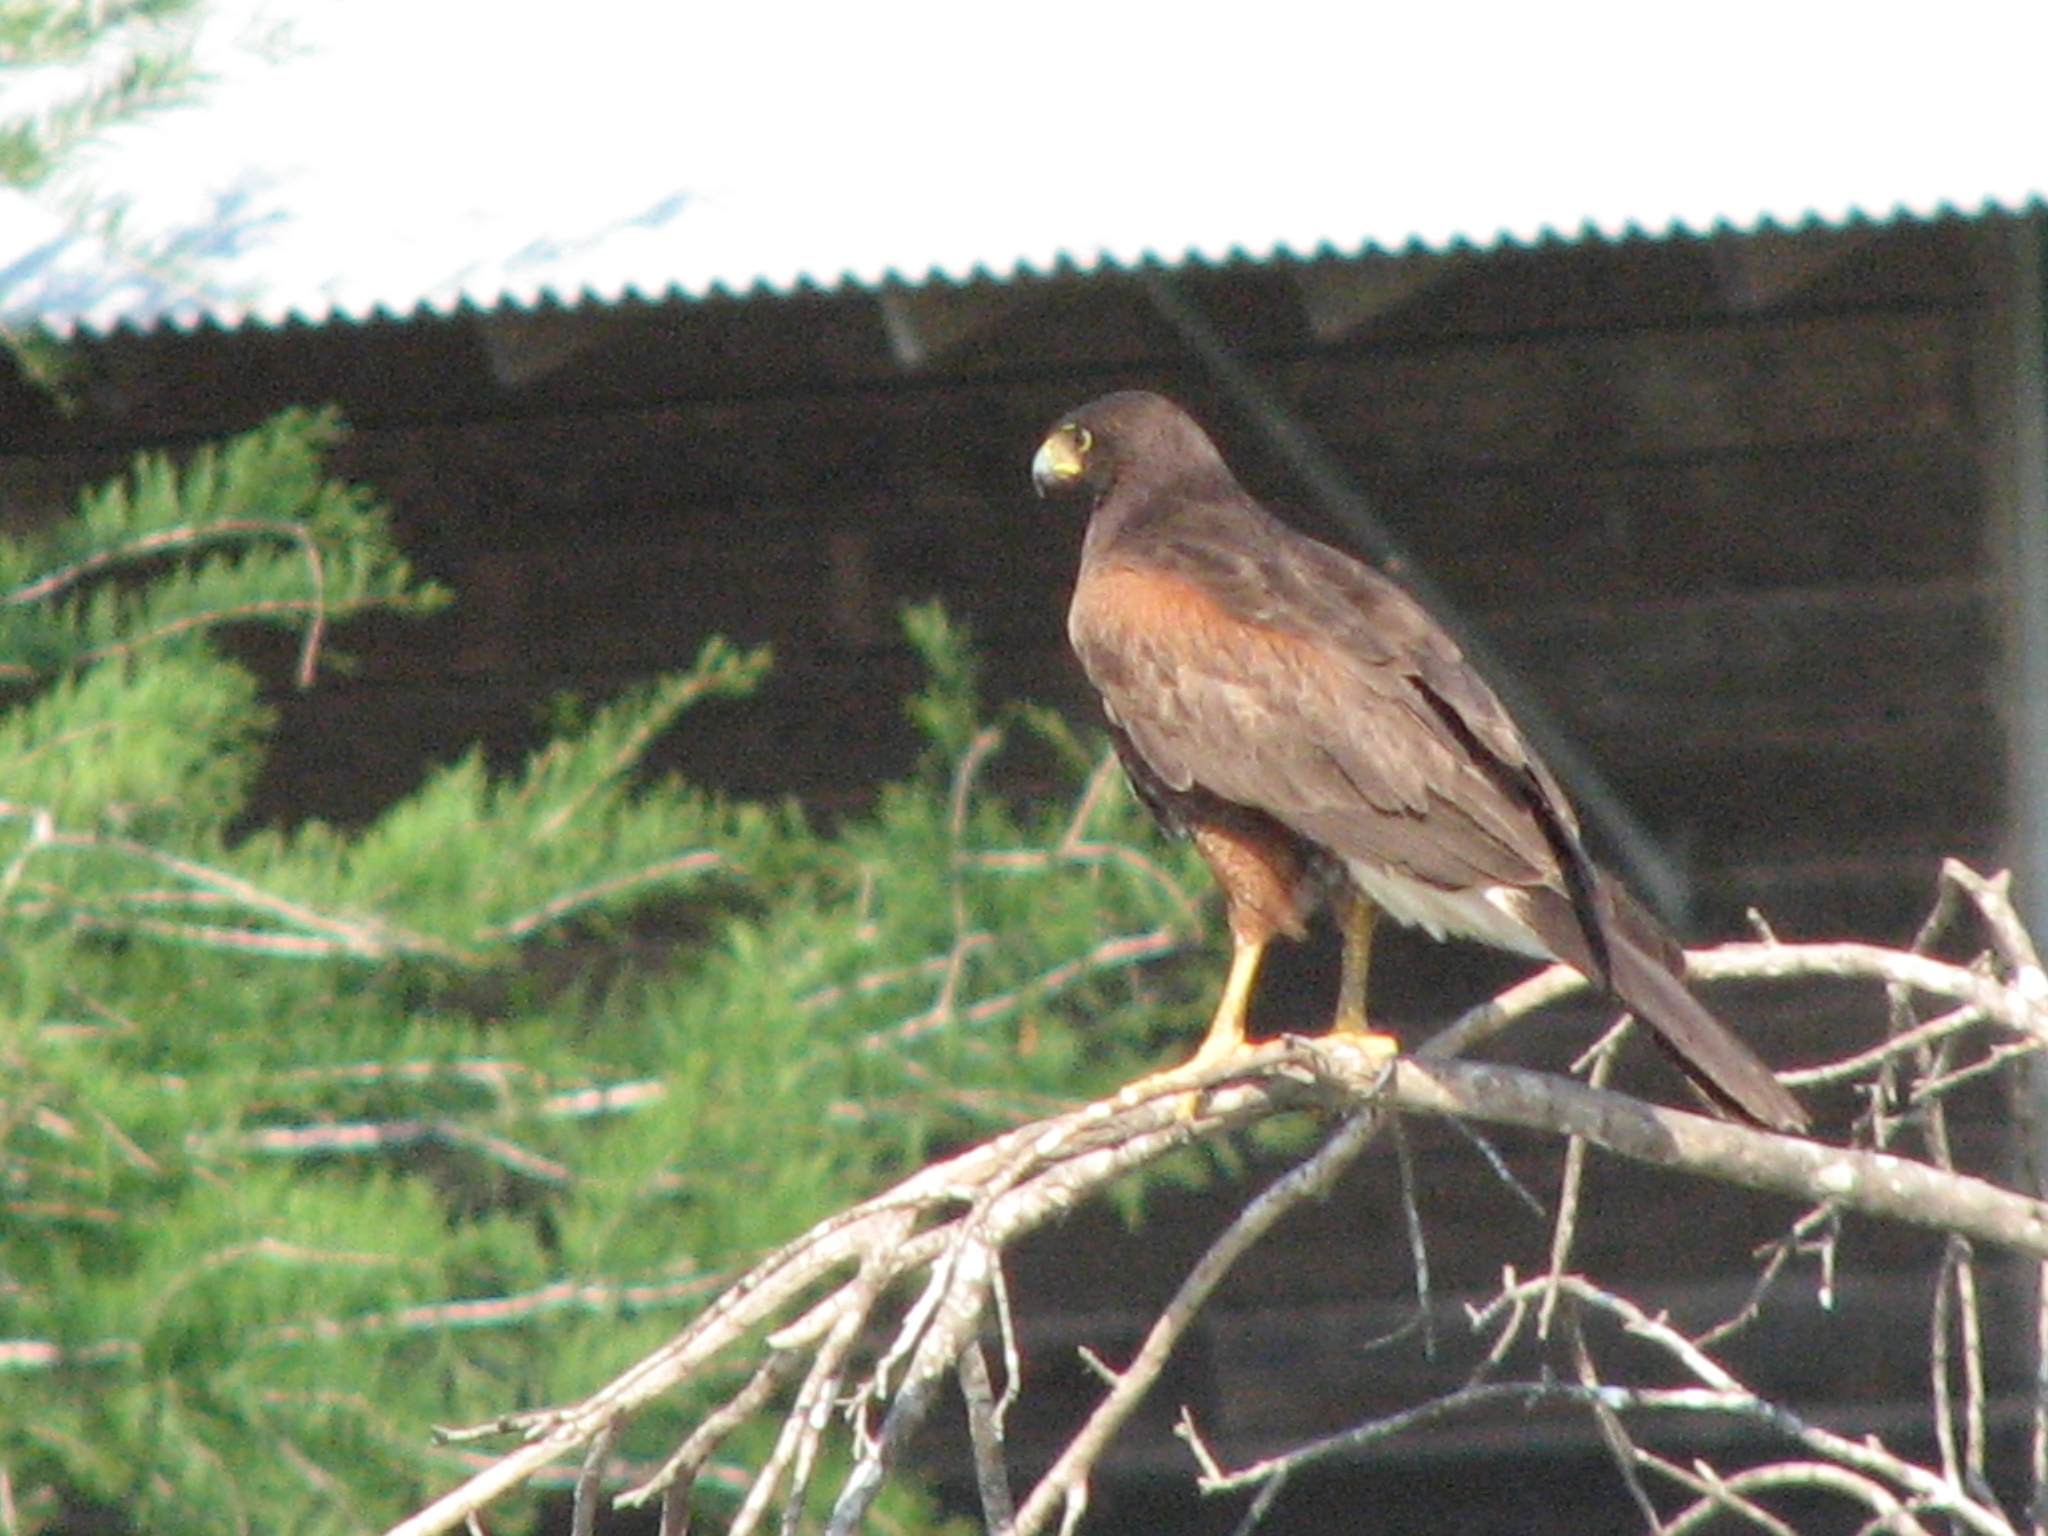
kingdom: Animalia
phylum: Chordata
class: Aves
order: Accipitriformes
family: Accipitridae
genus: Parabuteo
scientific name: Parabuteo unicinctus
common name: Harris's hawk
